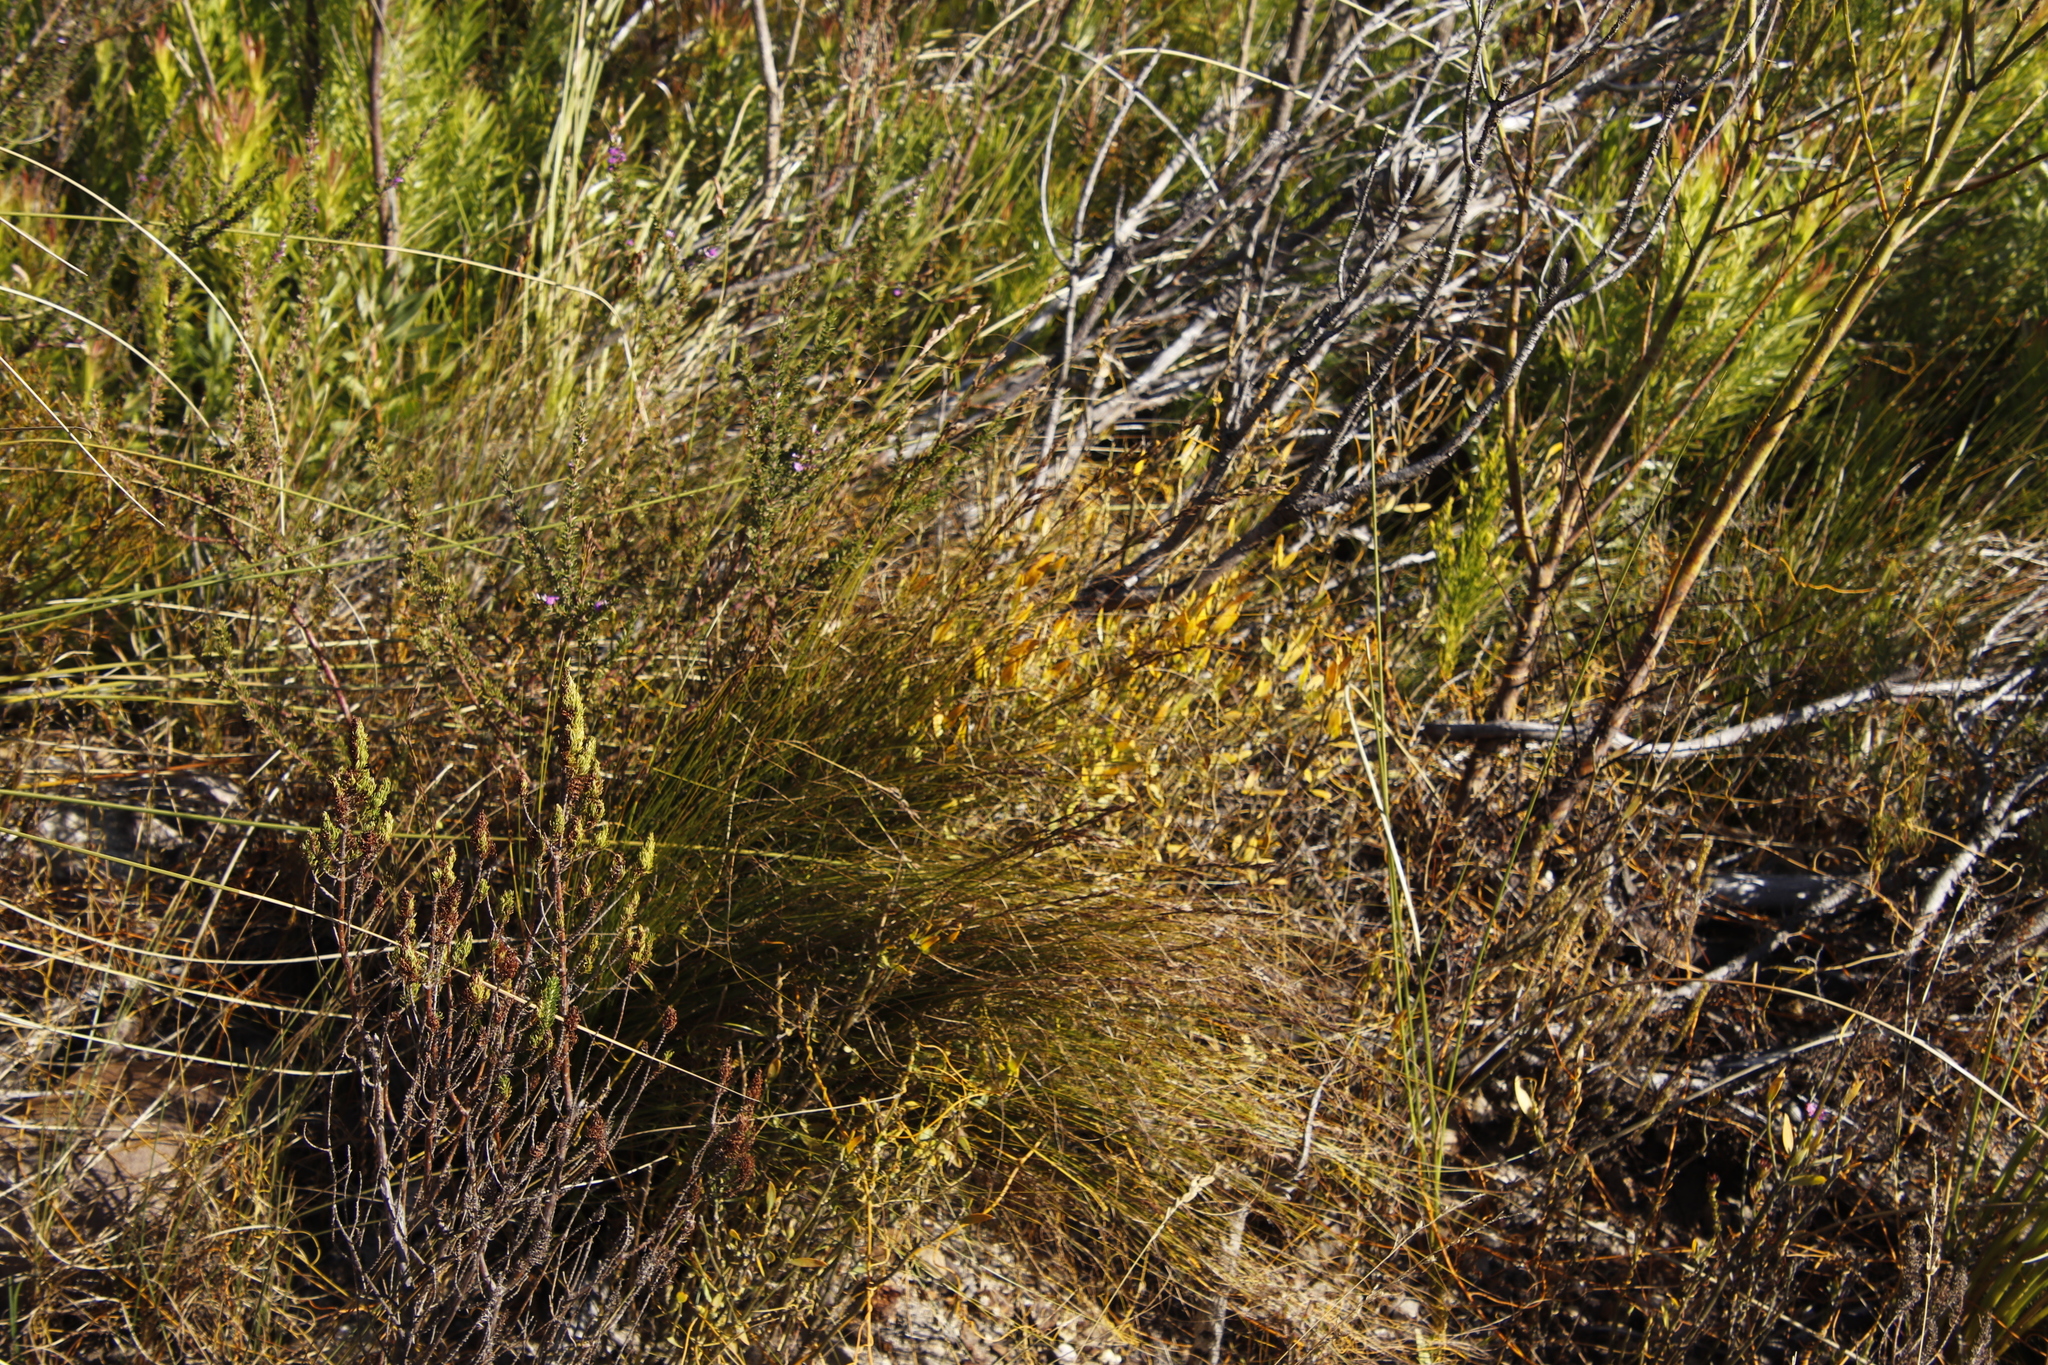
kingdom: Plantae
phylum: Tracheophyta
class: Magnoliopsida
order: Solanales
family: Montiniaceae
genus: Montinia
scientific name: Montinia caryophyllacea
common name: Wild clove-bush
